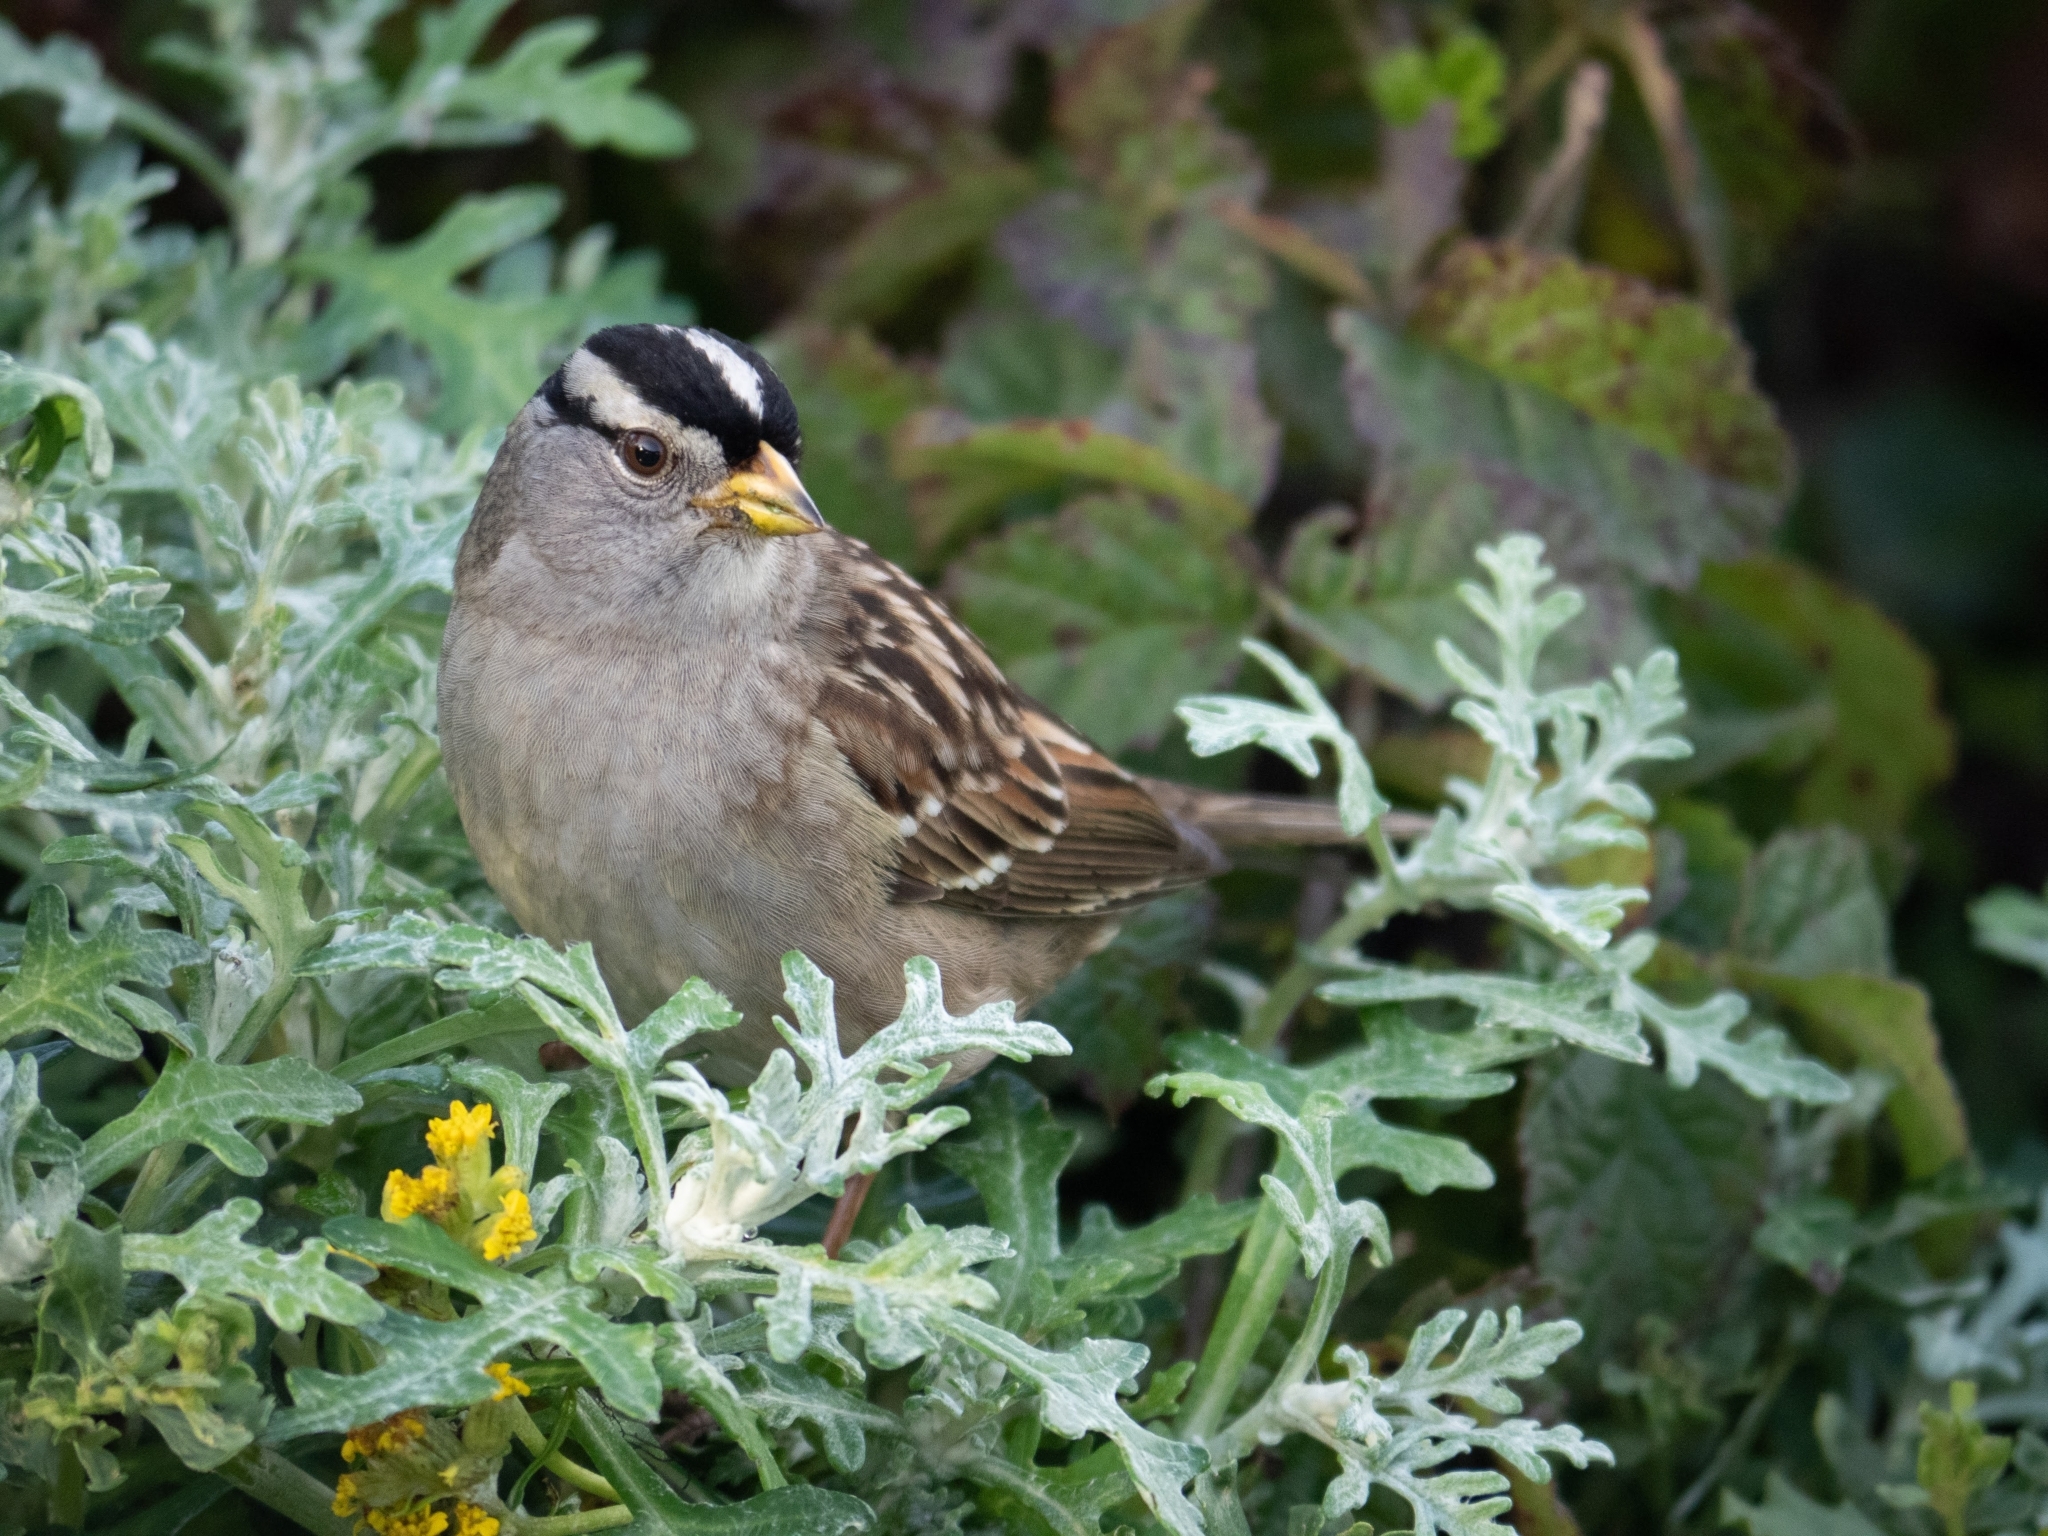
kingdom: Animalia
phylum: Chordata
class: Aves
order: Passeriformes
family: Passerellidae
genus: Zonotrichia
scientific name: Zonotrichia leucophrys
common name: White-crowned sparrow
